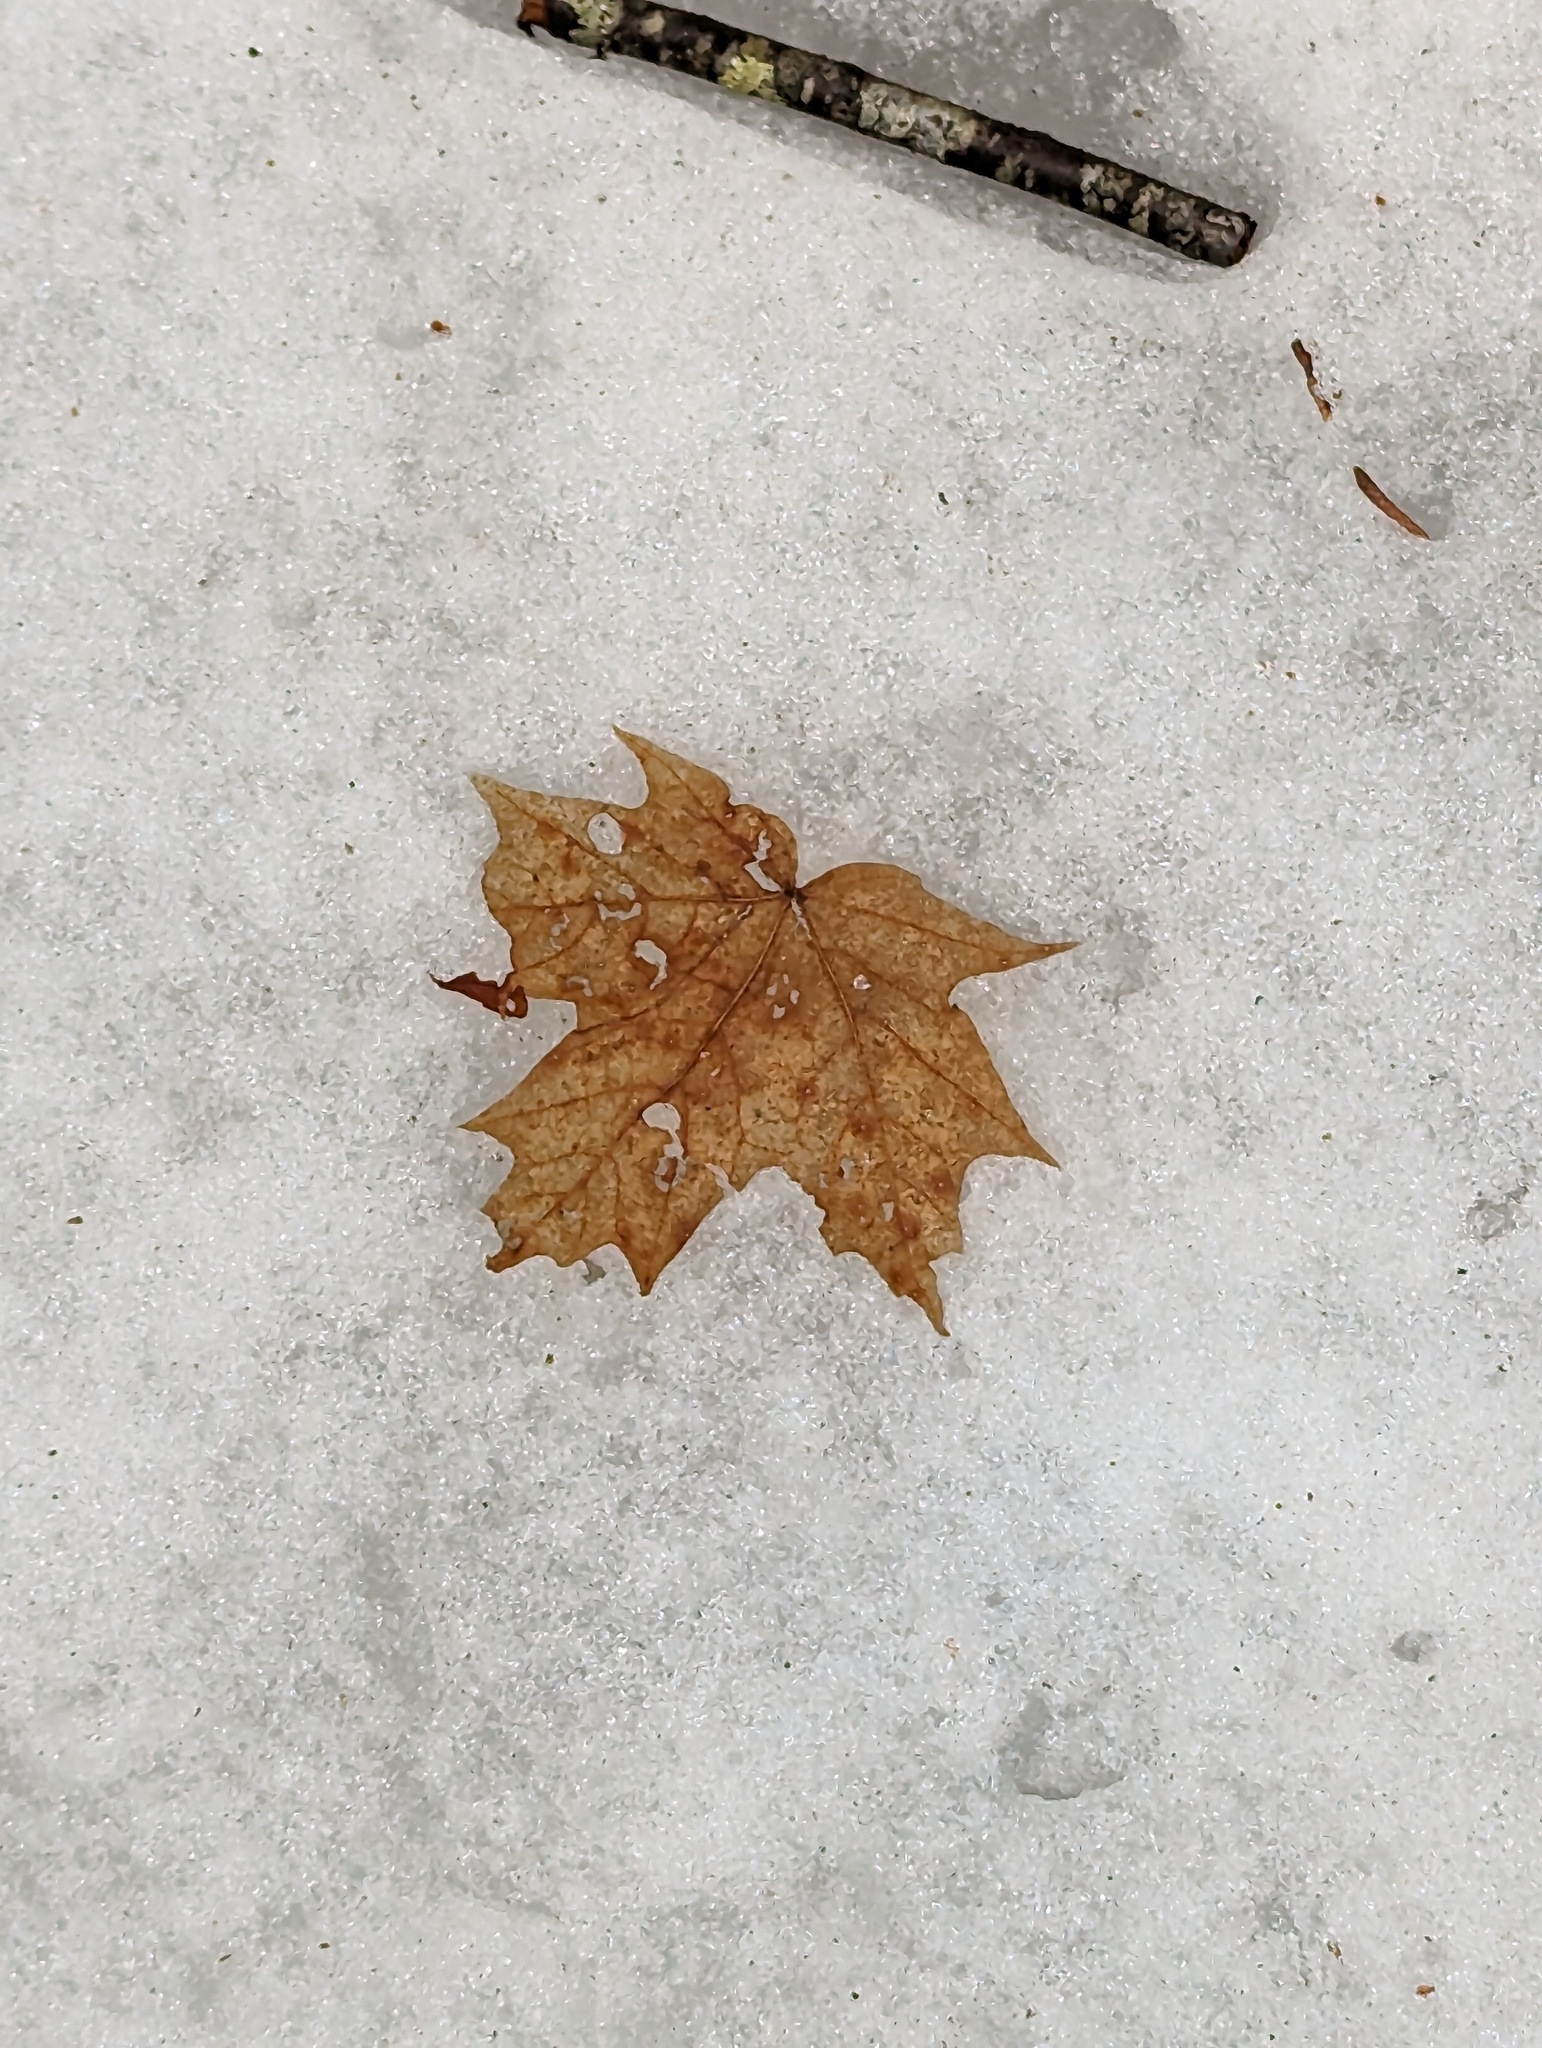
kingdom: Plantae
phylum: Tracheophyta
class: Magnoliopsida
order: Sapindales
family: Sapindaceae
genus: Acer
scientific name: Acer saccharum
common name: Sugar maple
